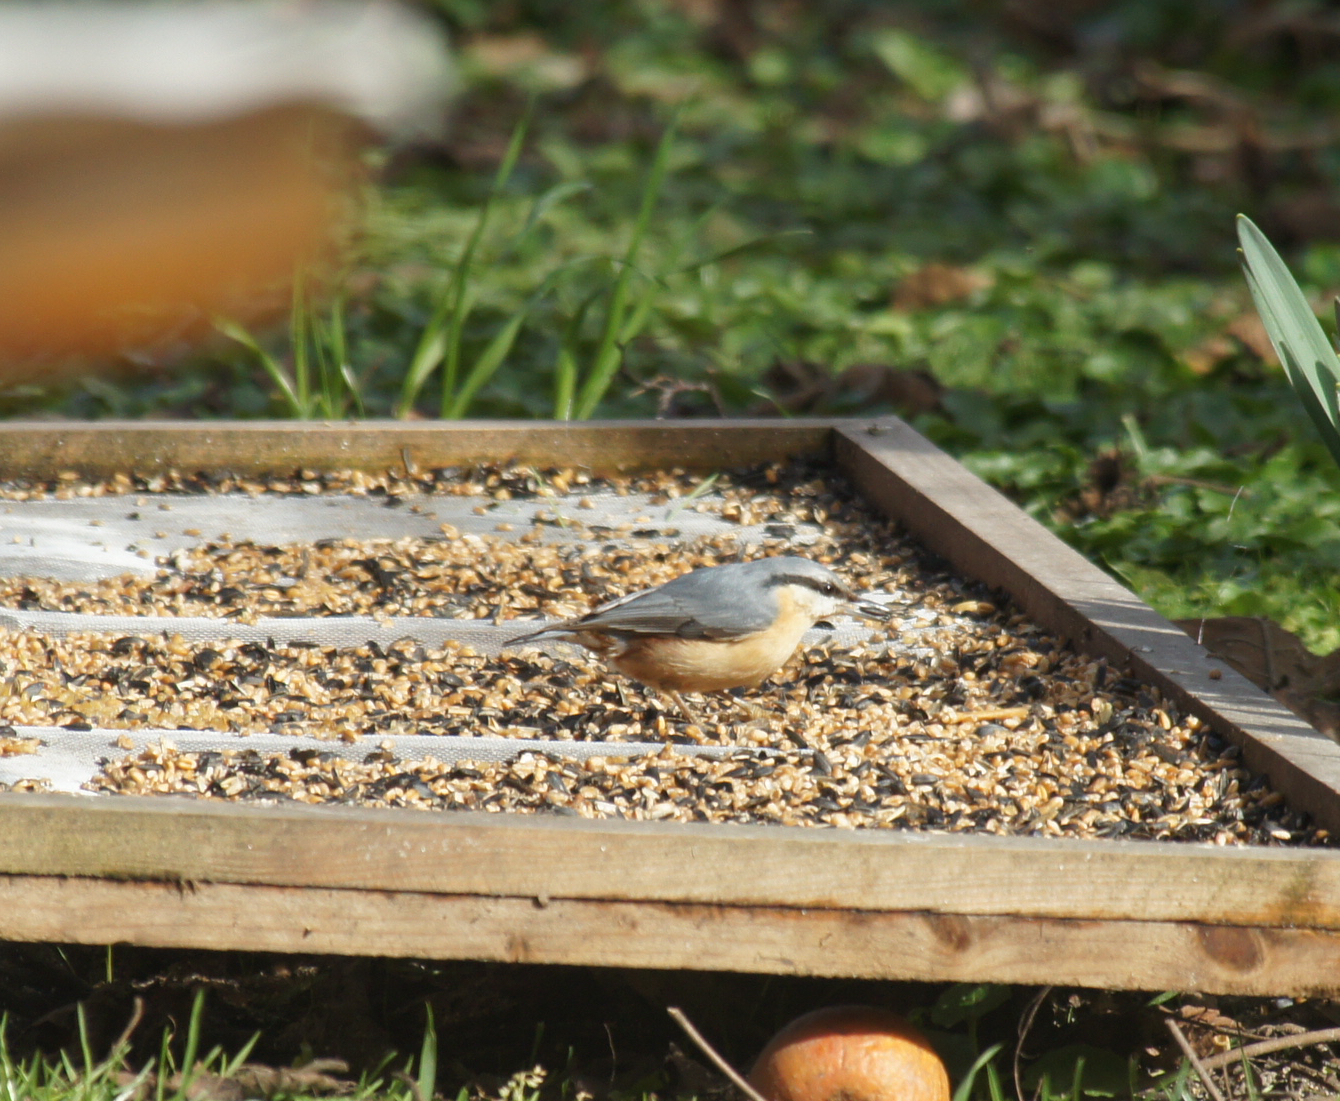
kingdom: Animalia
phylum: Chordata
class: Aves
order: Passeriformes
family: Sittidae
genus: Sitta
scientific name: Sitta europaea
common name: Eurasian nuthatch
